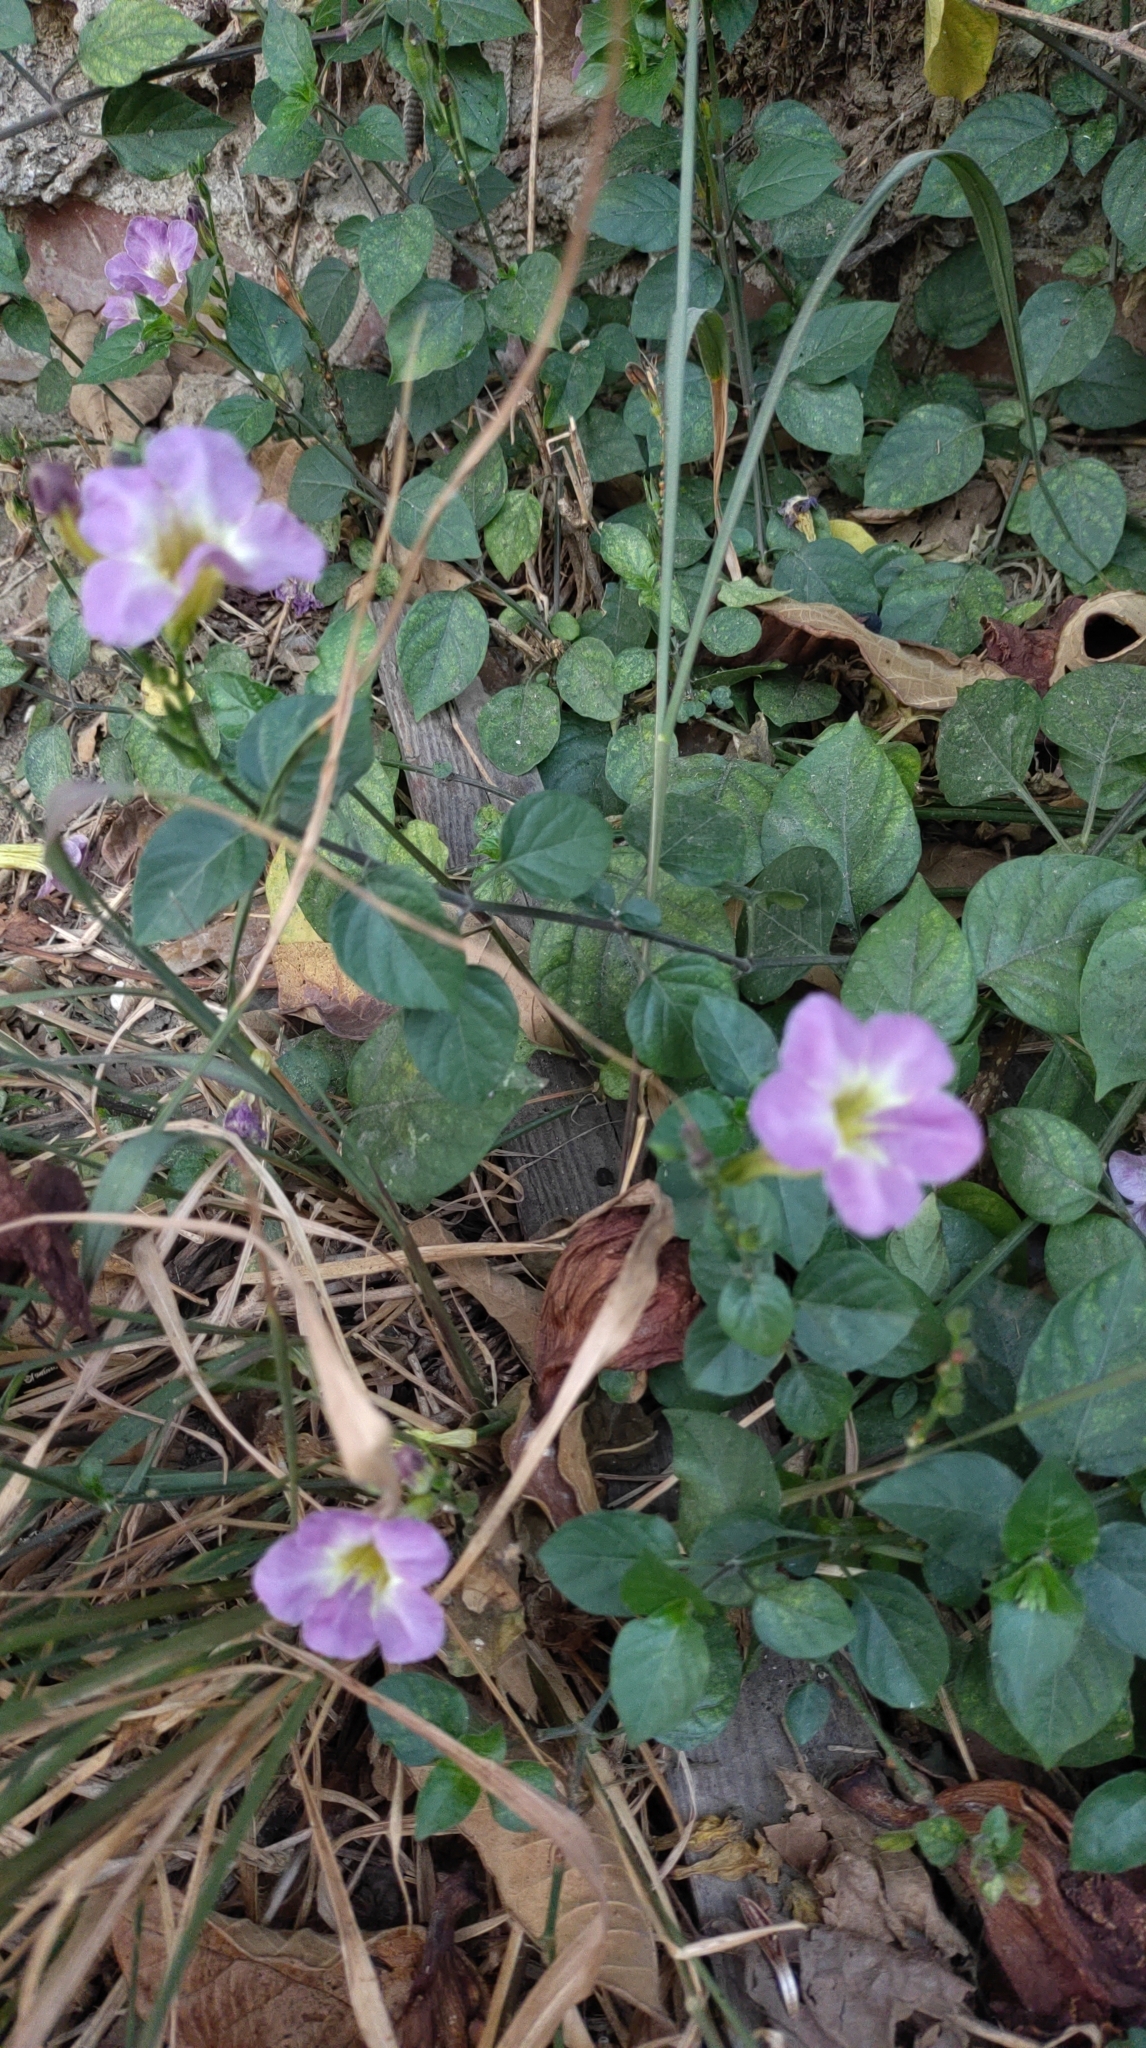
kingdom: Plantae
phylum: Tracheophyta
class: Magnoliopsida
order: Lamiales
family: Acanthaceae
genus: Asystasia
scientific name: Asystasia gangetica
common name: Chinese violet
